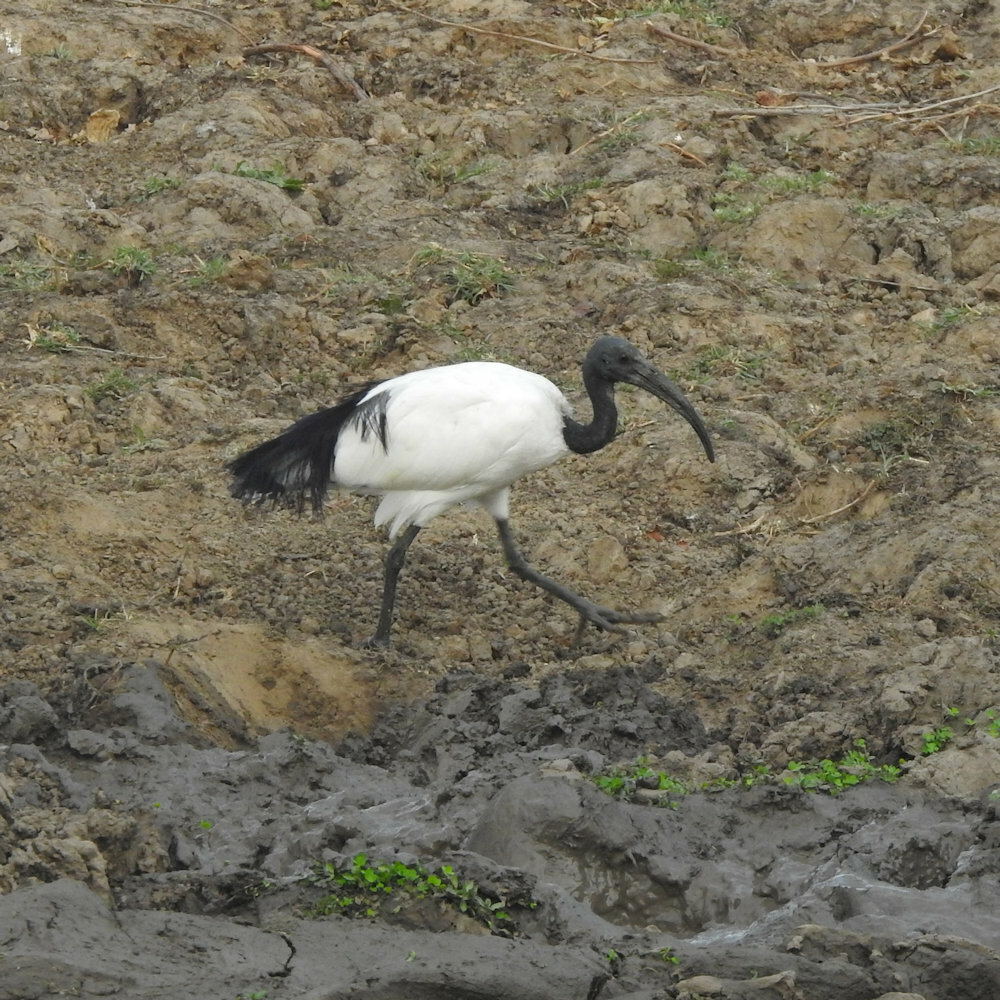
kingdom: Animalia
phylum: Chordata
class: Aves
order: Pelecaniformes
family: Threskiornithidae
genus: Threskiornis
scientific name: Threskiornis aethiopicus
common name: Sacred ibis
